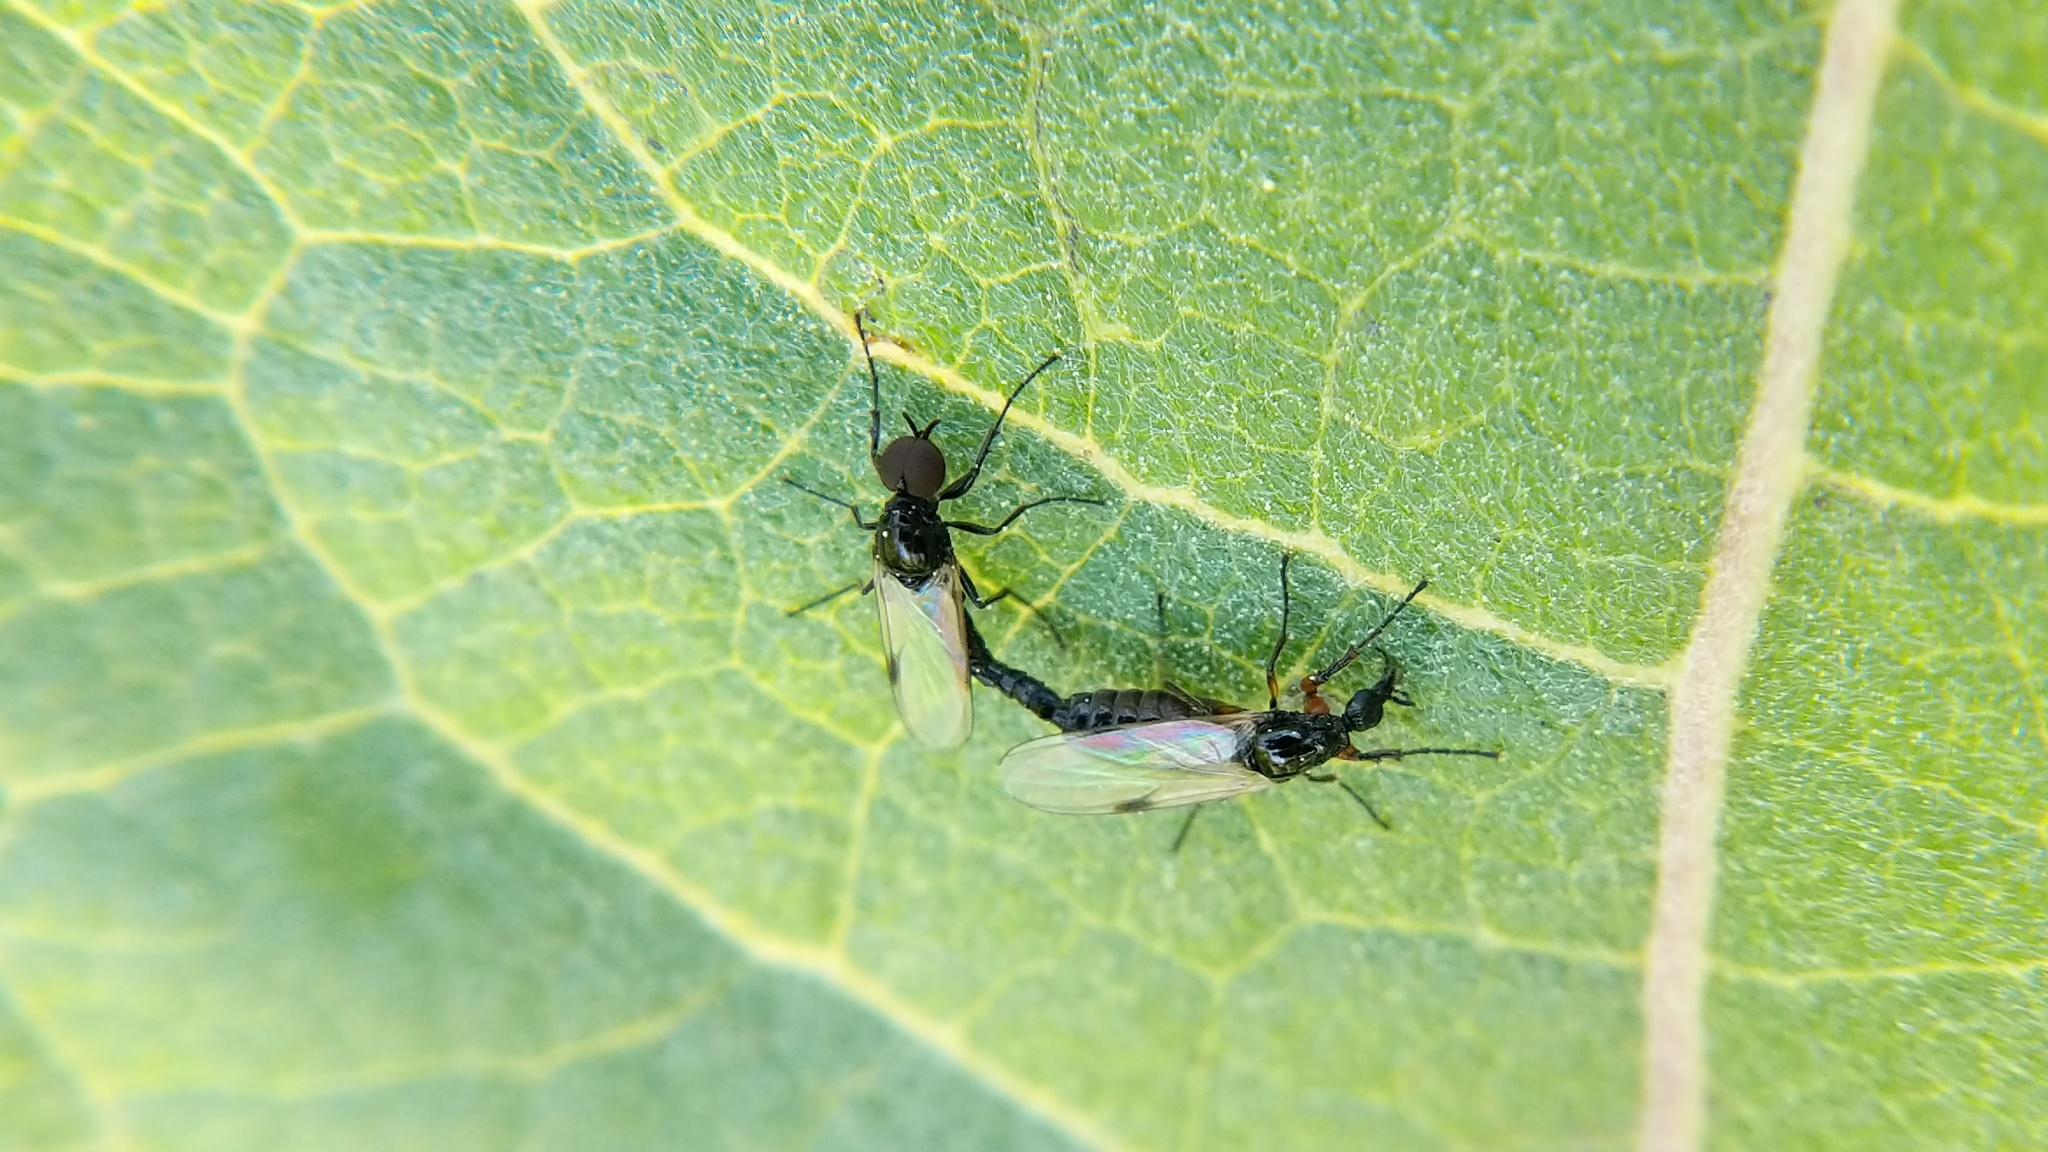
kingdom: Animalia
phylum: Arthropoda
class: Insecta
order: Diptera
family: Bibionidae
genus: Dilophus
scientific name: Dilophus
